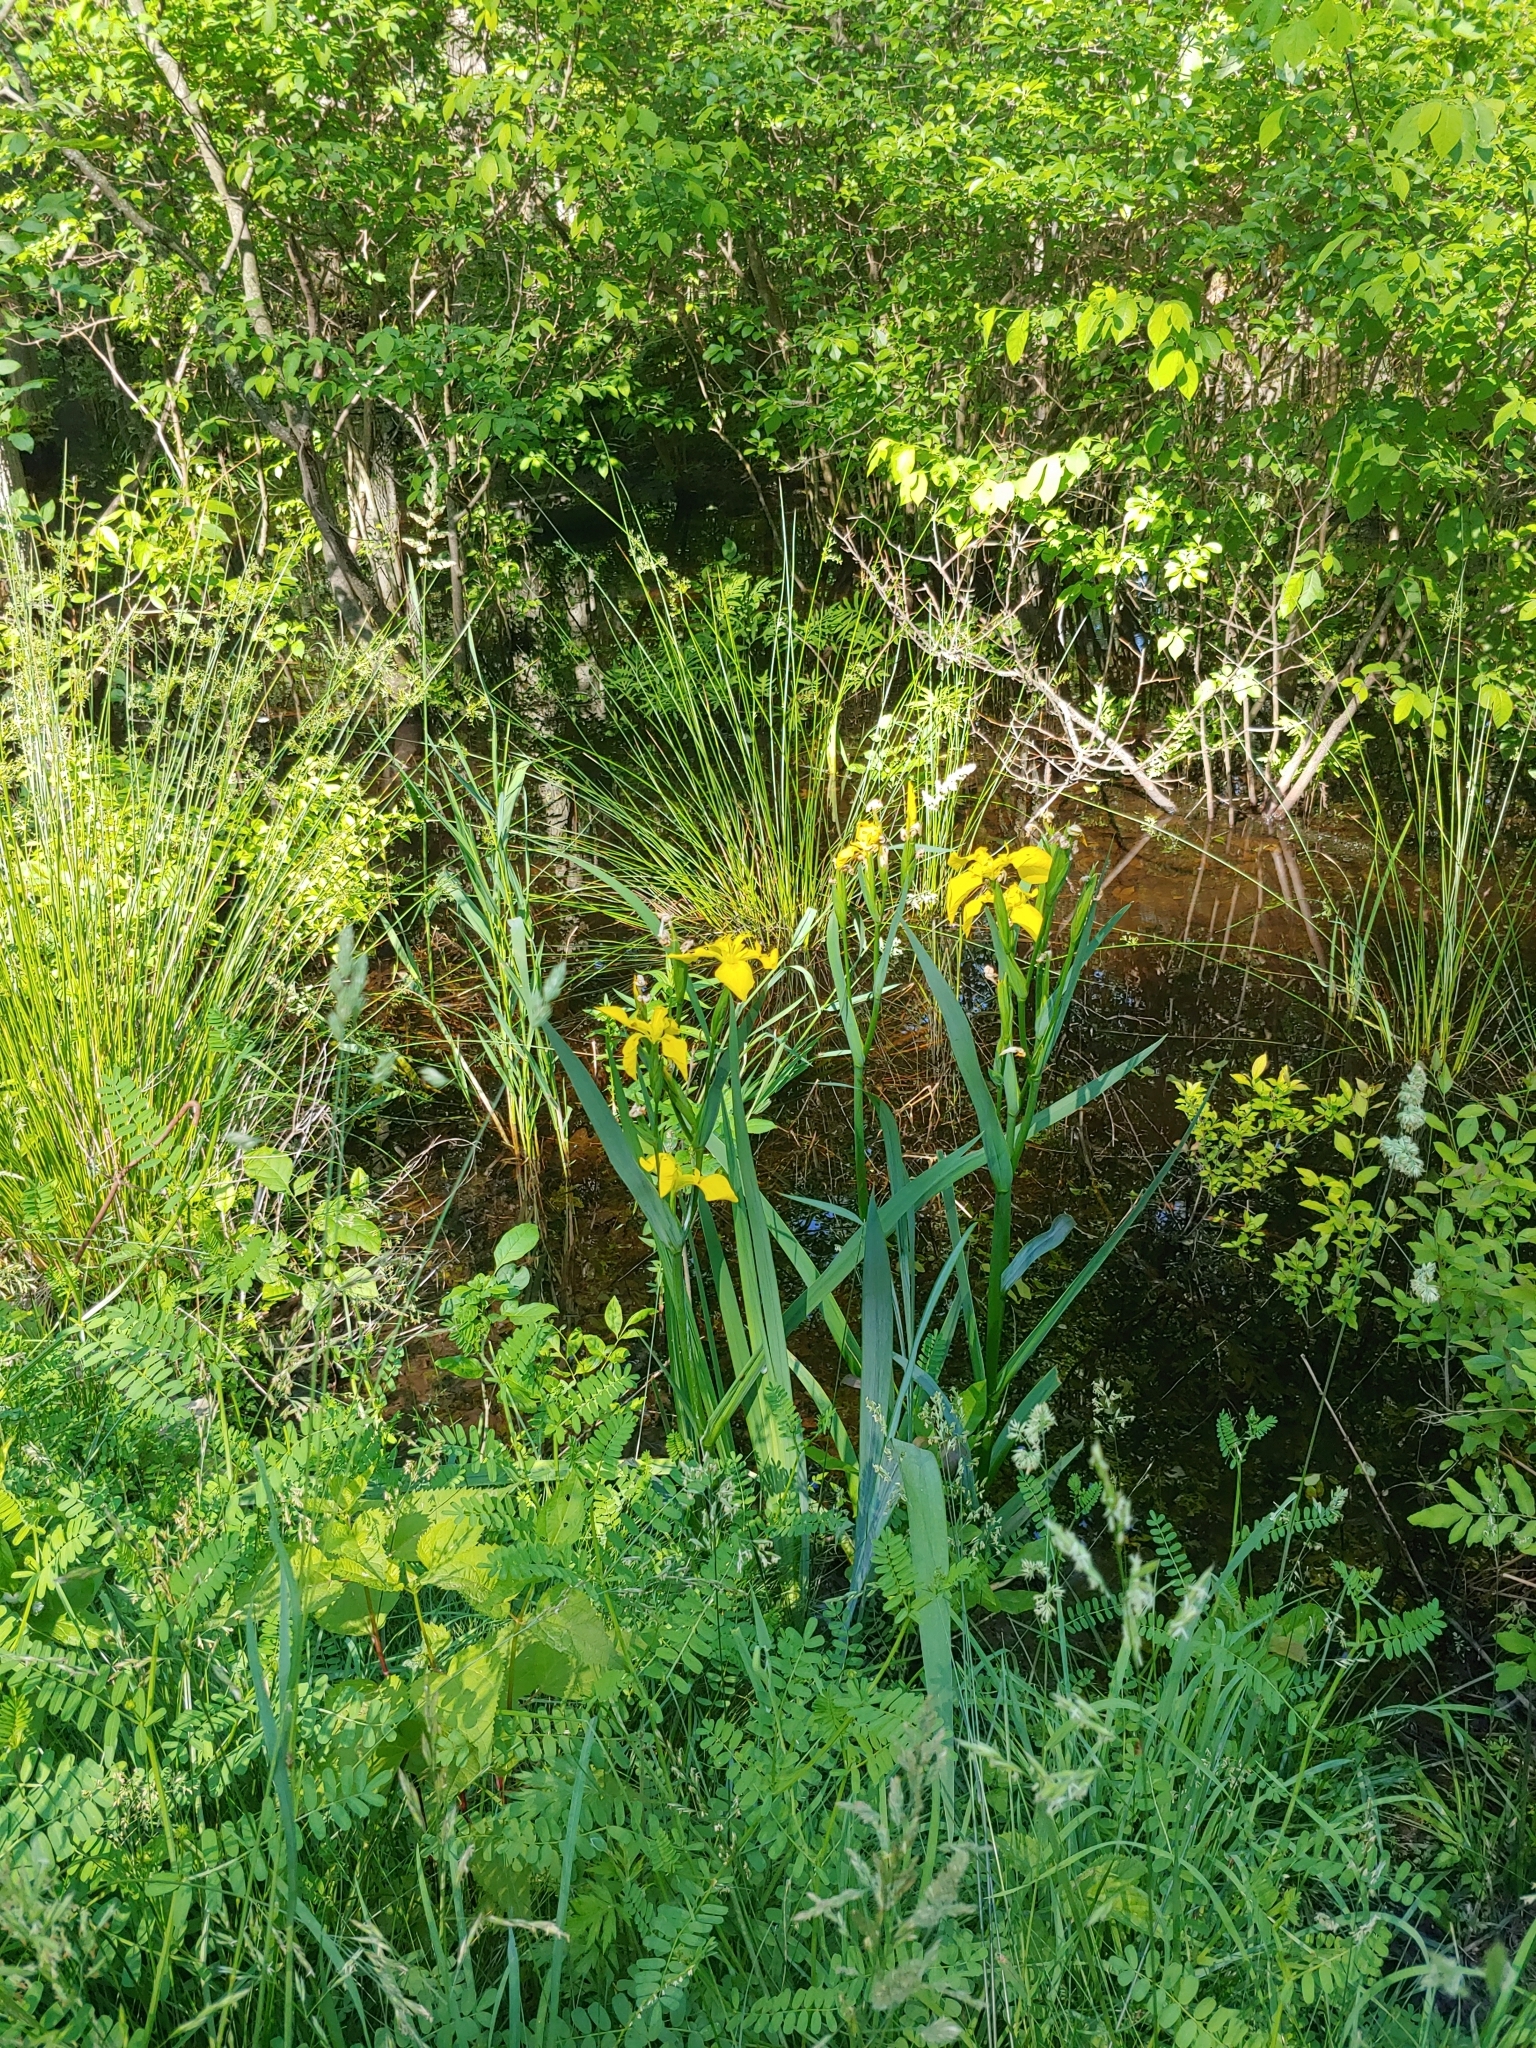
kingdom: Plantae
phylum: Tracheophyta
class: Liliopsida
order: Asparagales
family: Iridaceae
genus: Iris
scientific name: Iris pseudacorus
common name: Yellow flag
